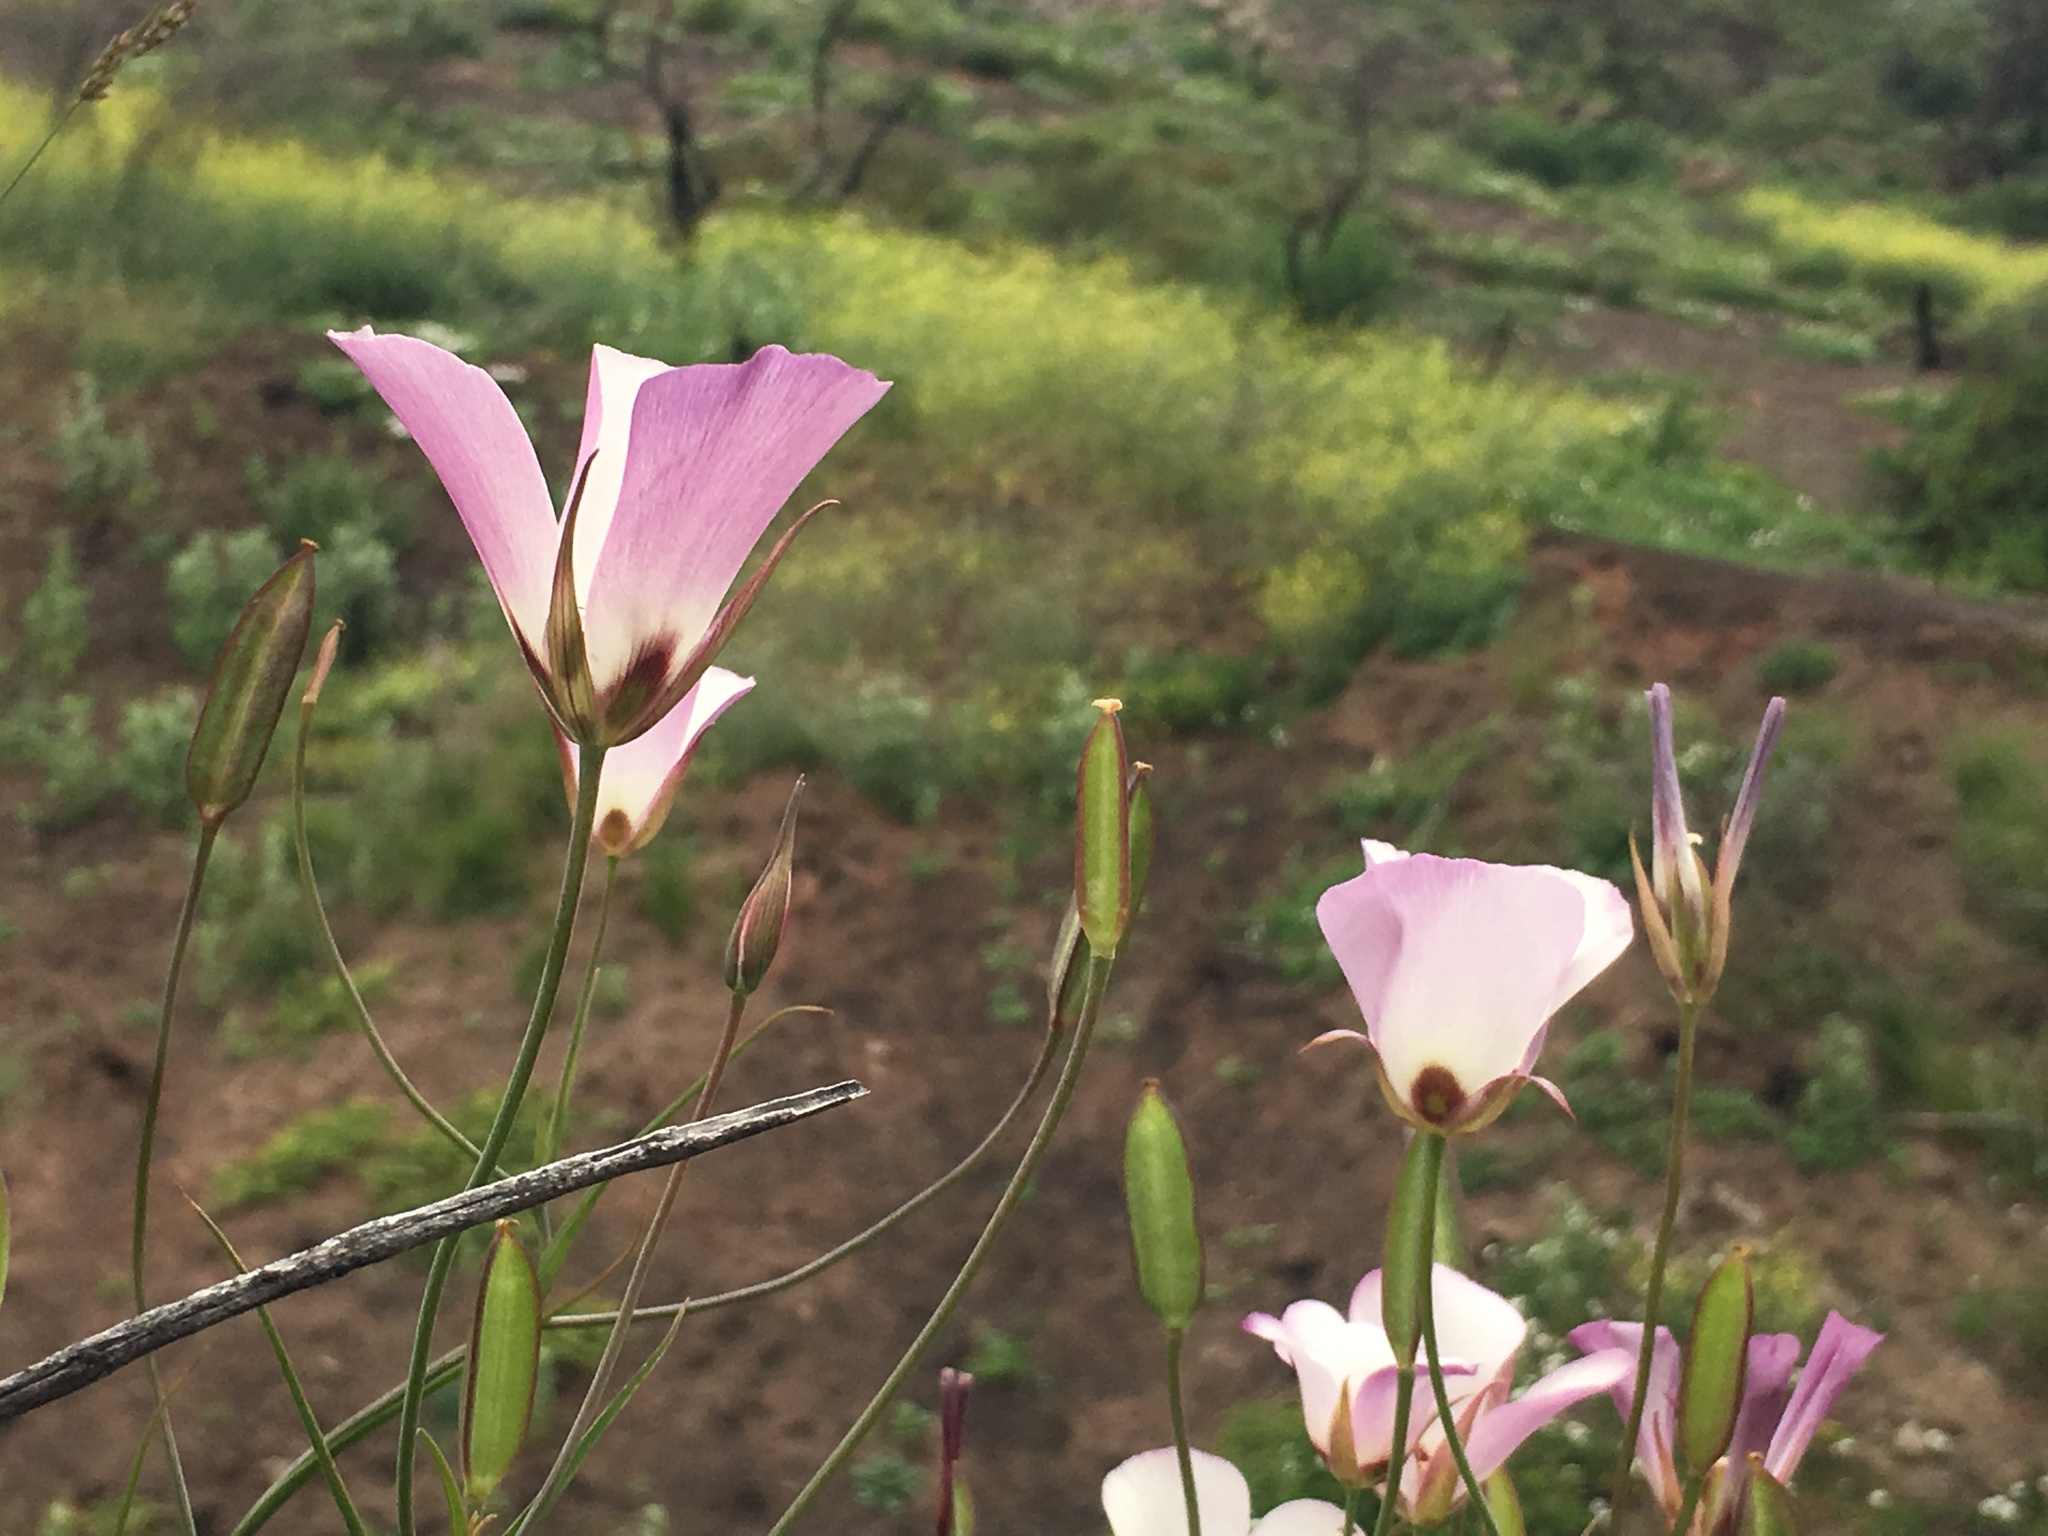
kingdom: Plantae
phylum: Tracheophyta
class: Liliopsida
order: Liliales
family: Liliaceae
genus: Calochortus
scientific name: Calochortus catalinae
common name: Catalina mariposa-lily
